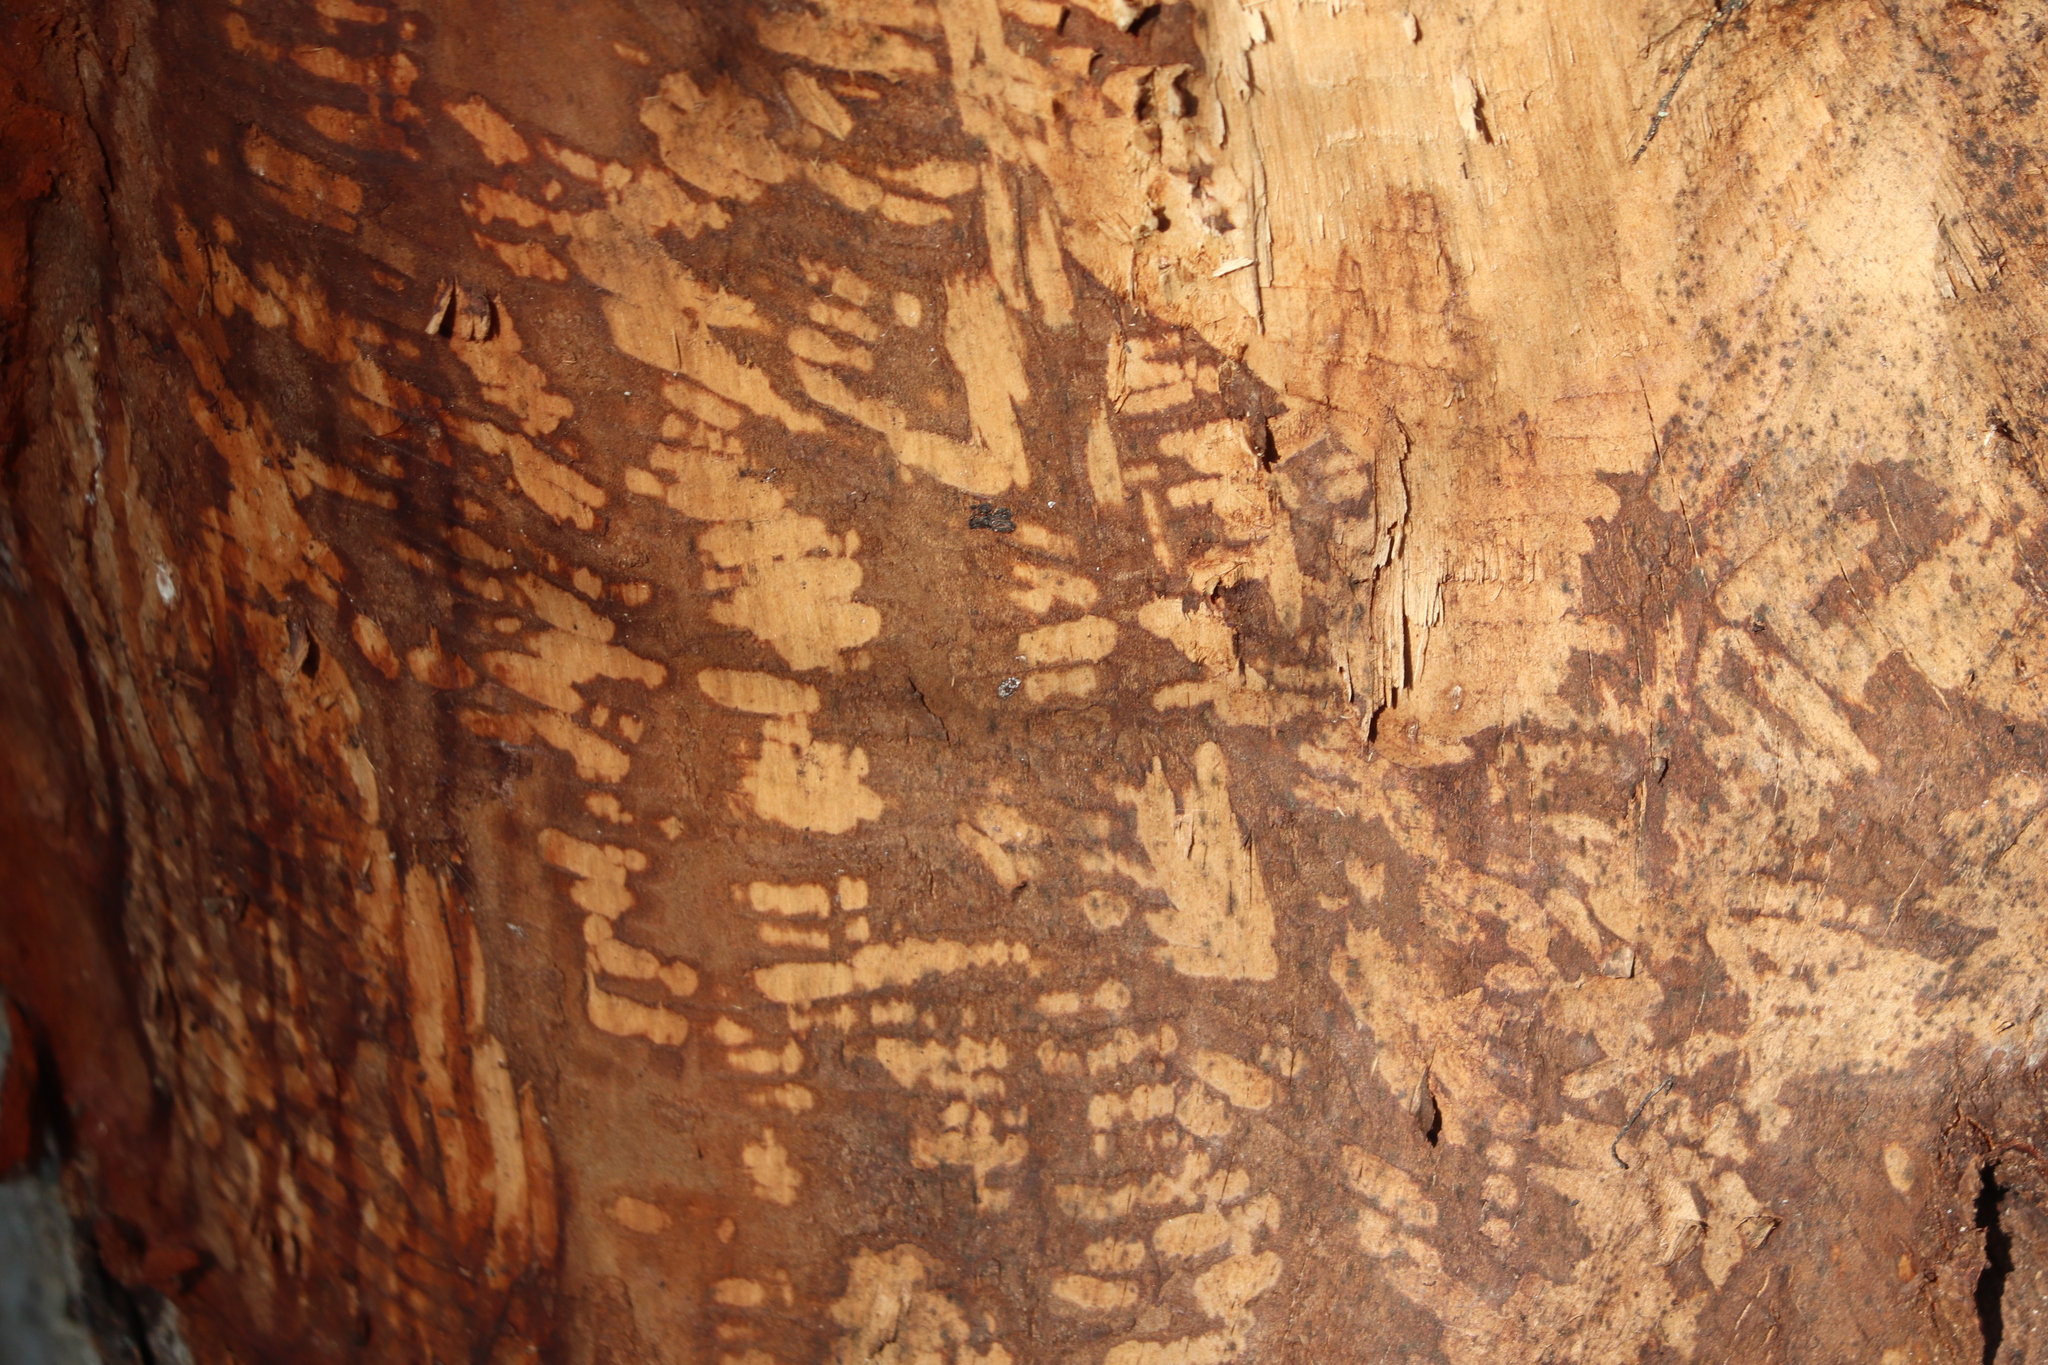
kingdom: Animalia
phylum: Chordata
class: Mammalia
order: Rodentia
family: Castoridae
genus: Castor
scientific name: Castor canadensis
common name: American beaver
